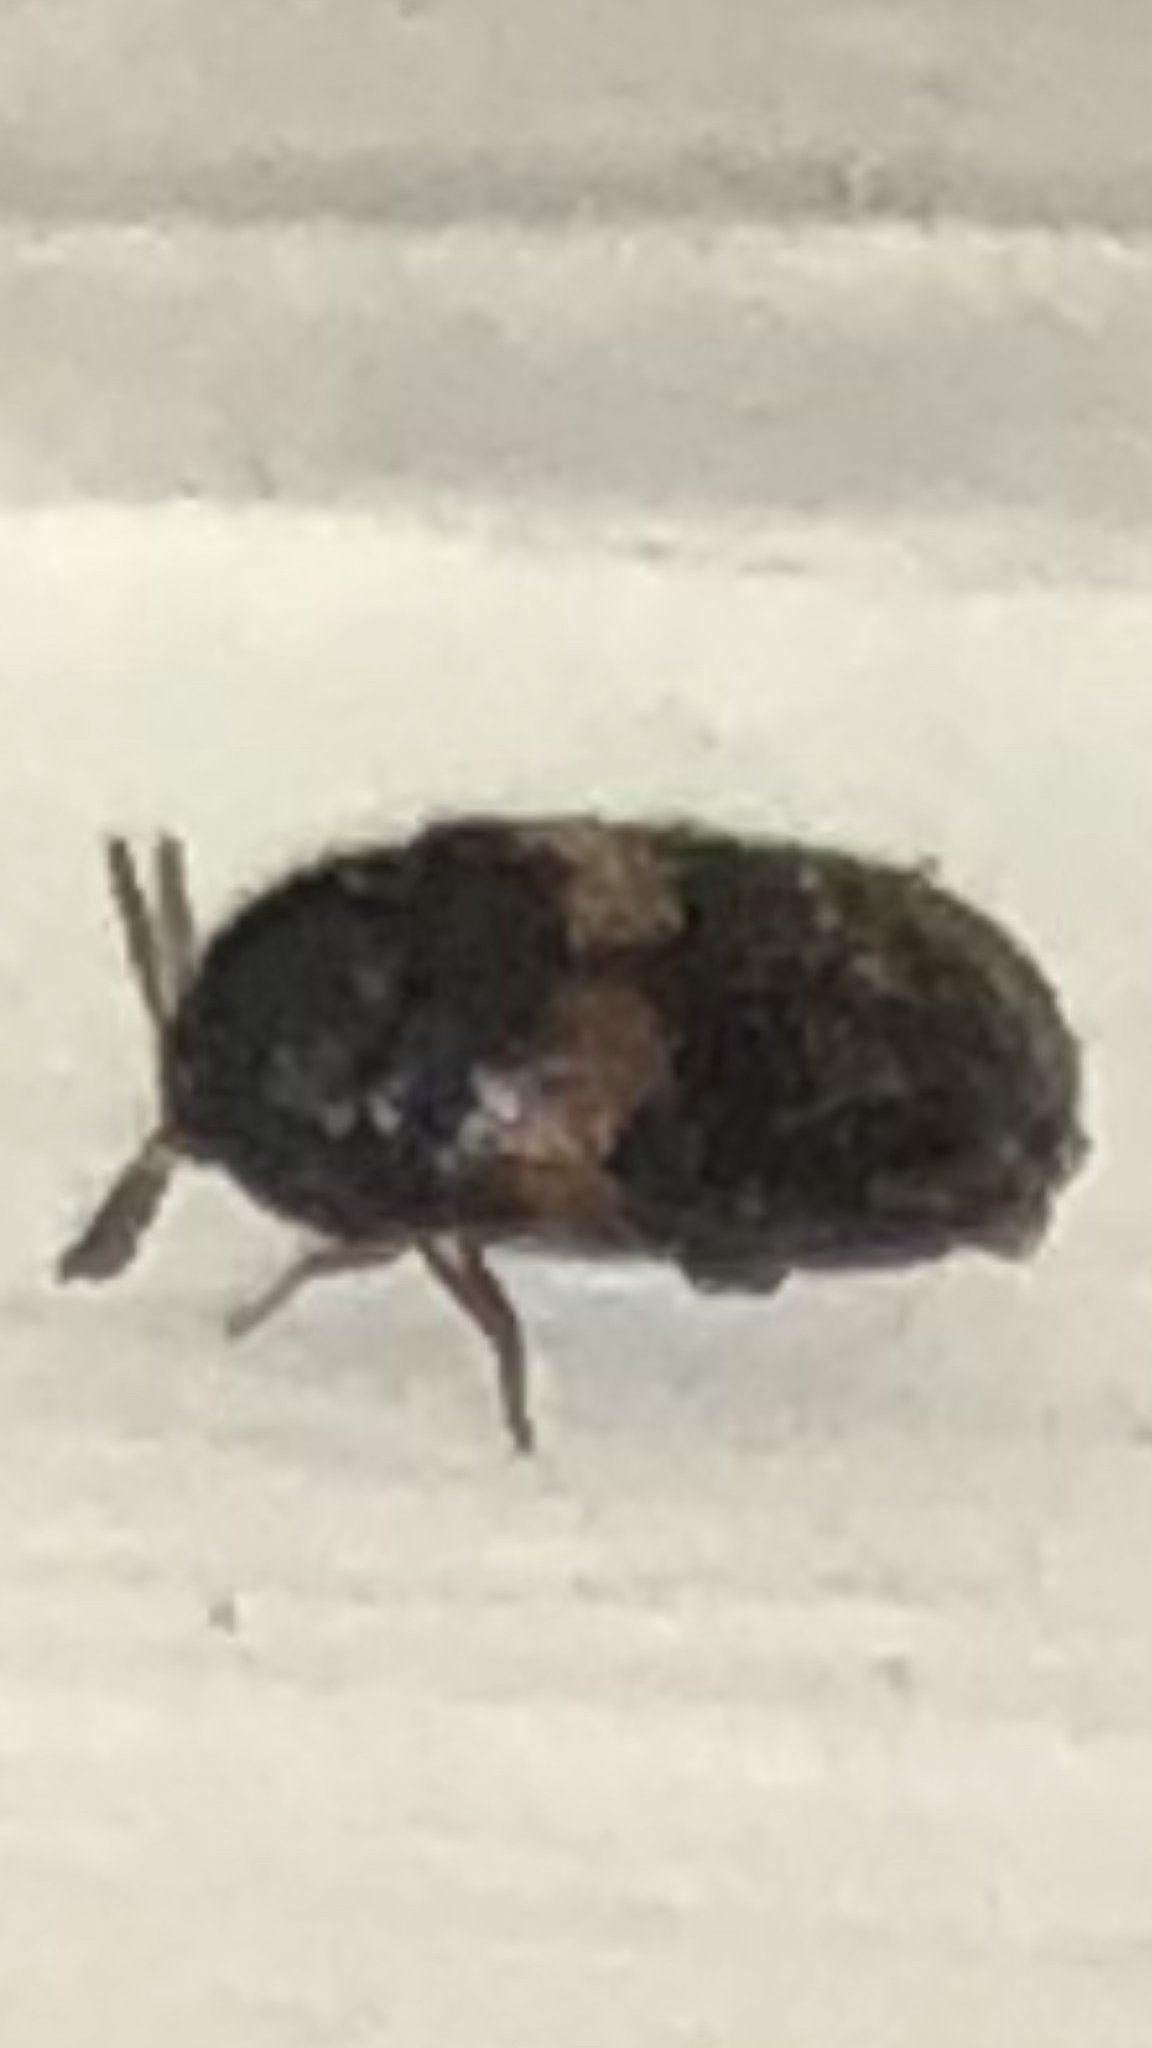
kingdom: Animalia
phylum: Arthropoda
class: Insecta
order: Coleoptera
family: Dermestidae
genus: Trogoderma
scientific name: Trogoderma primum
